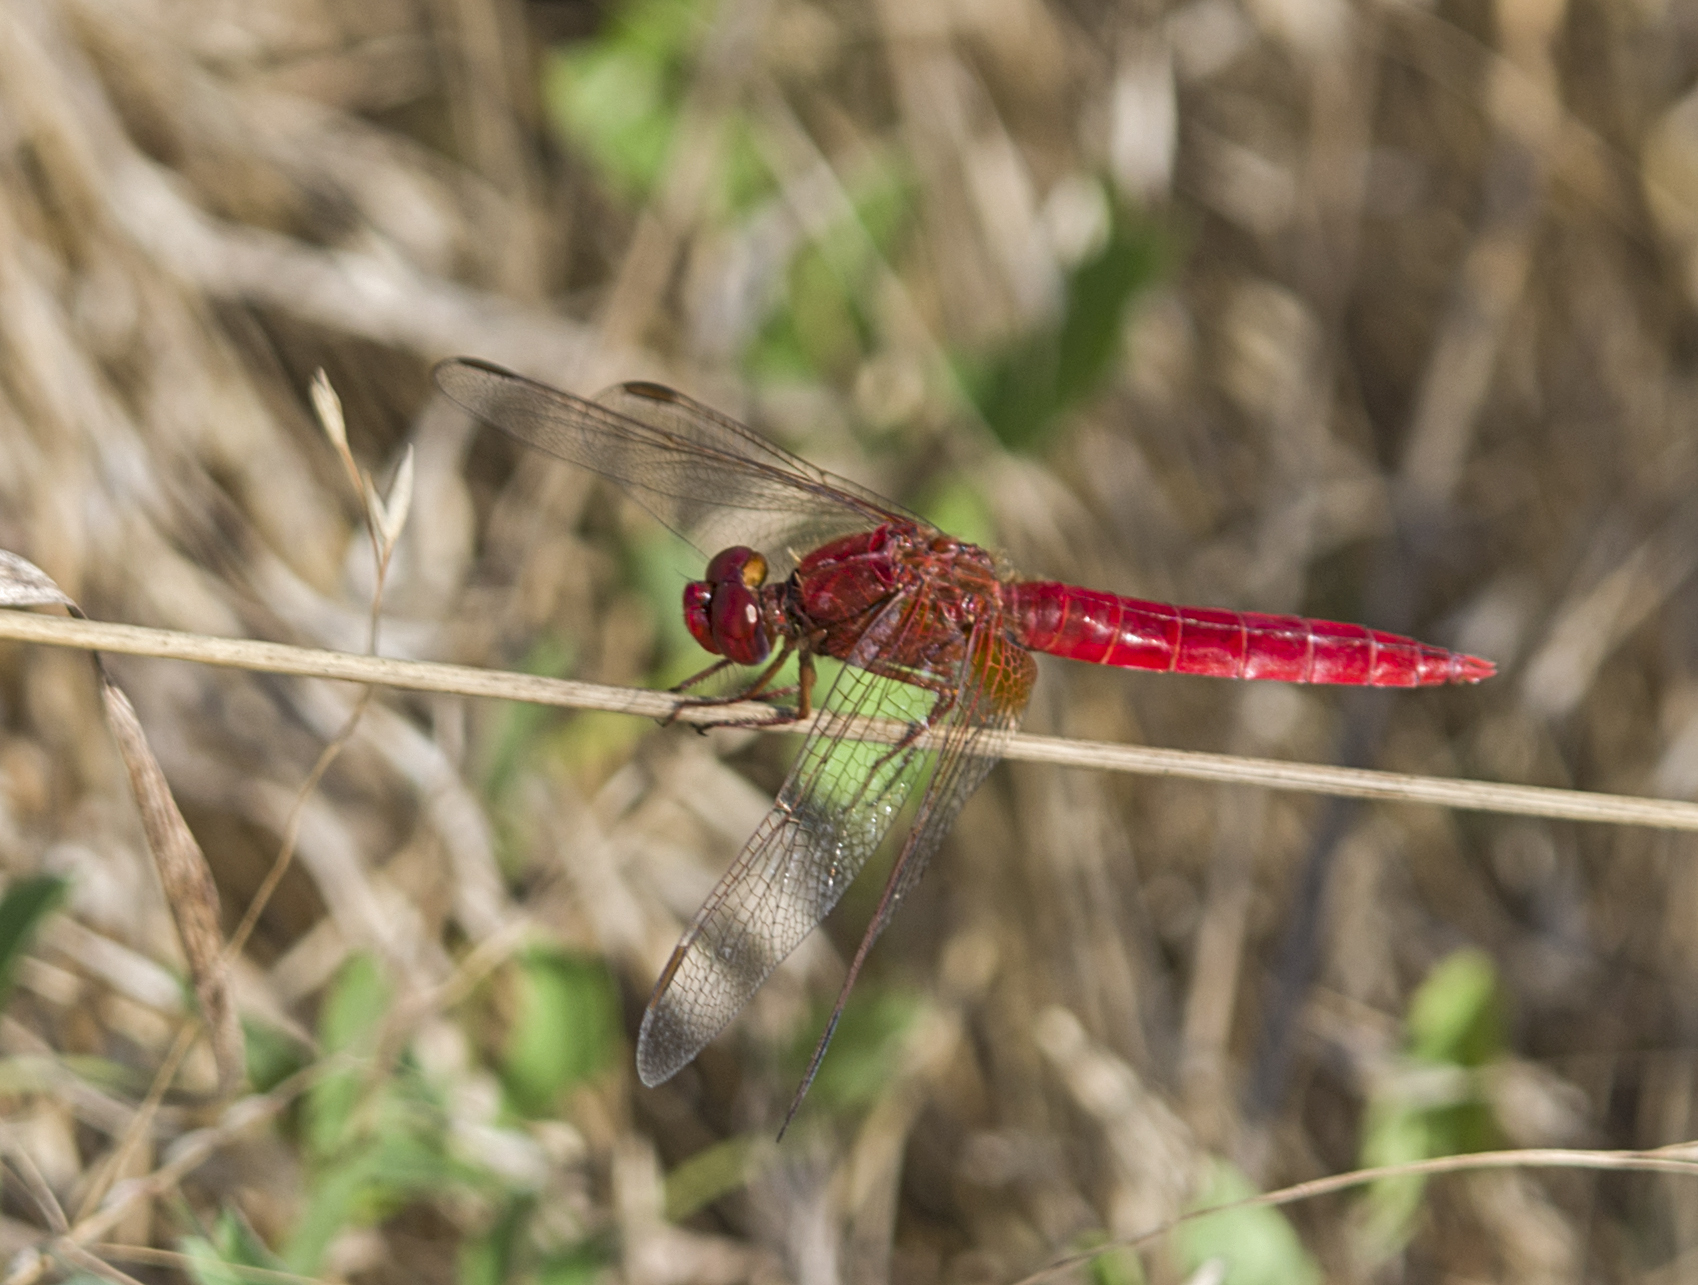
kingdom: Animalia
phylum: Arthropoda
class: Insecta
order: Odonata
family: Libellulidae
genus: Crocothemis
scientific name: Crocothemis erythraea
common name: Scarlet dragonfly
